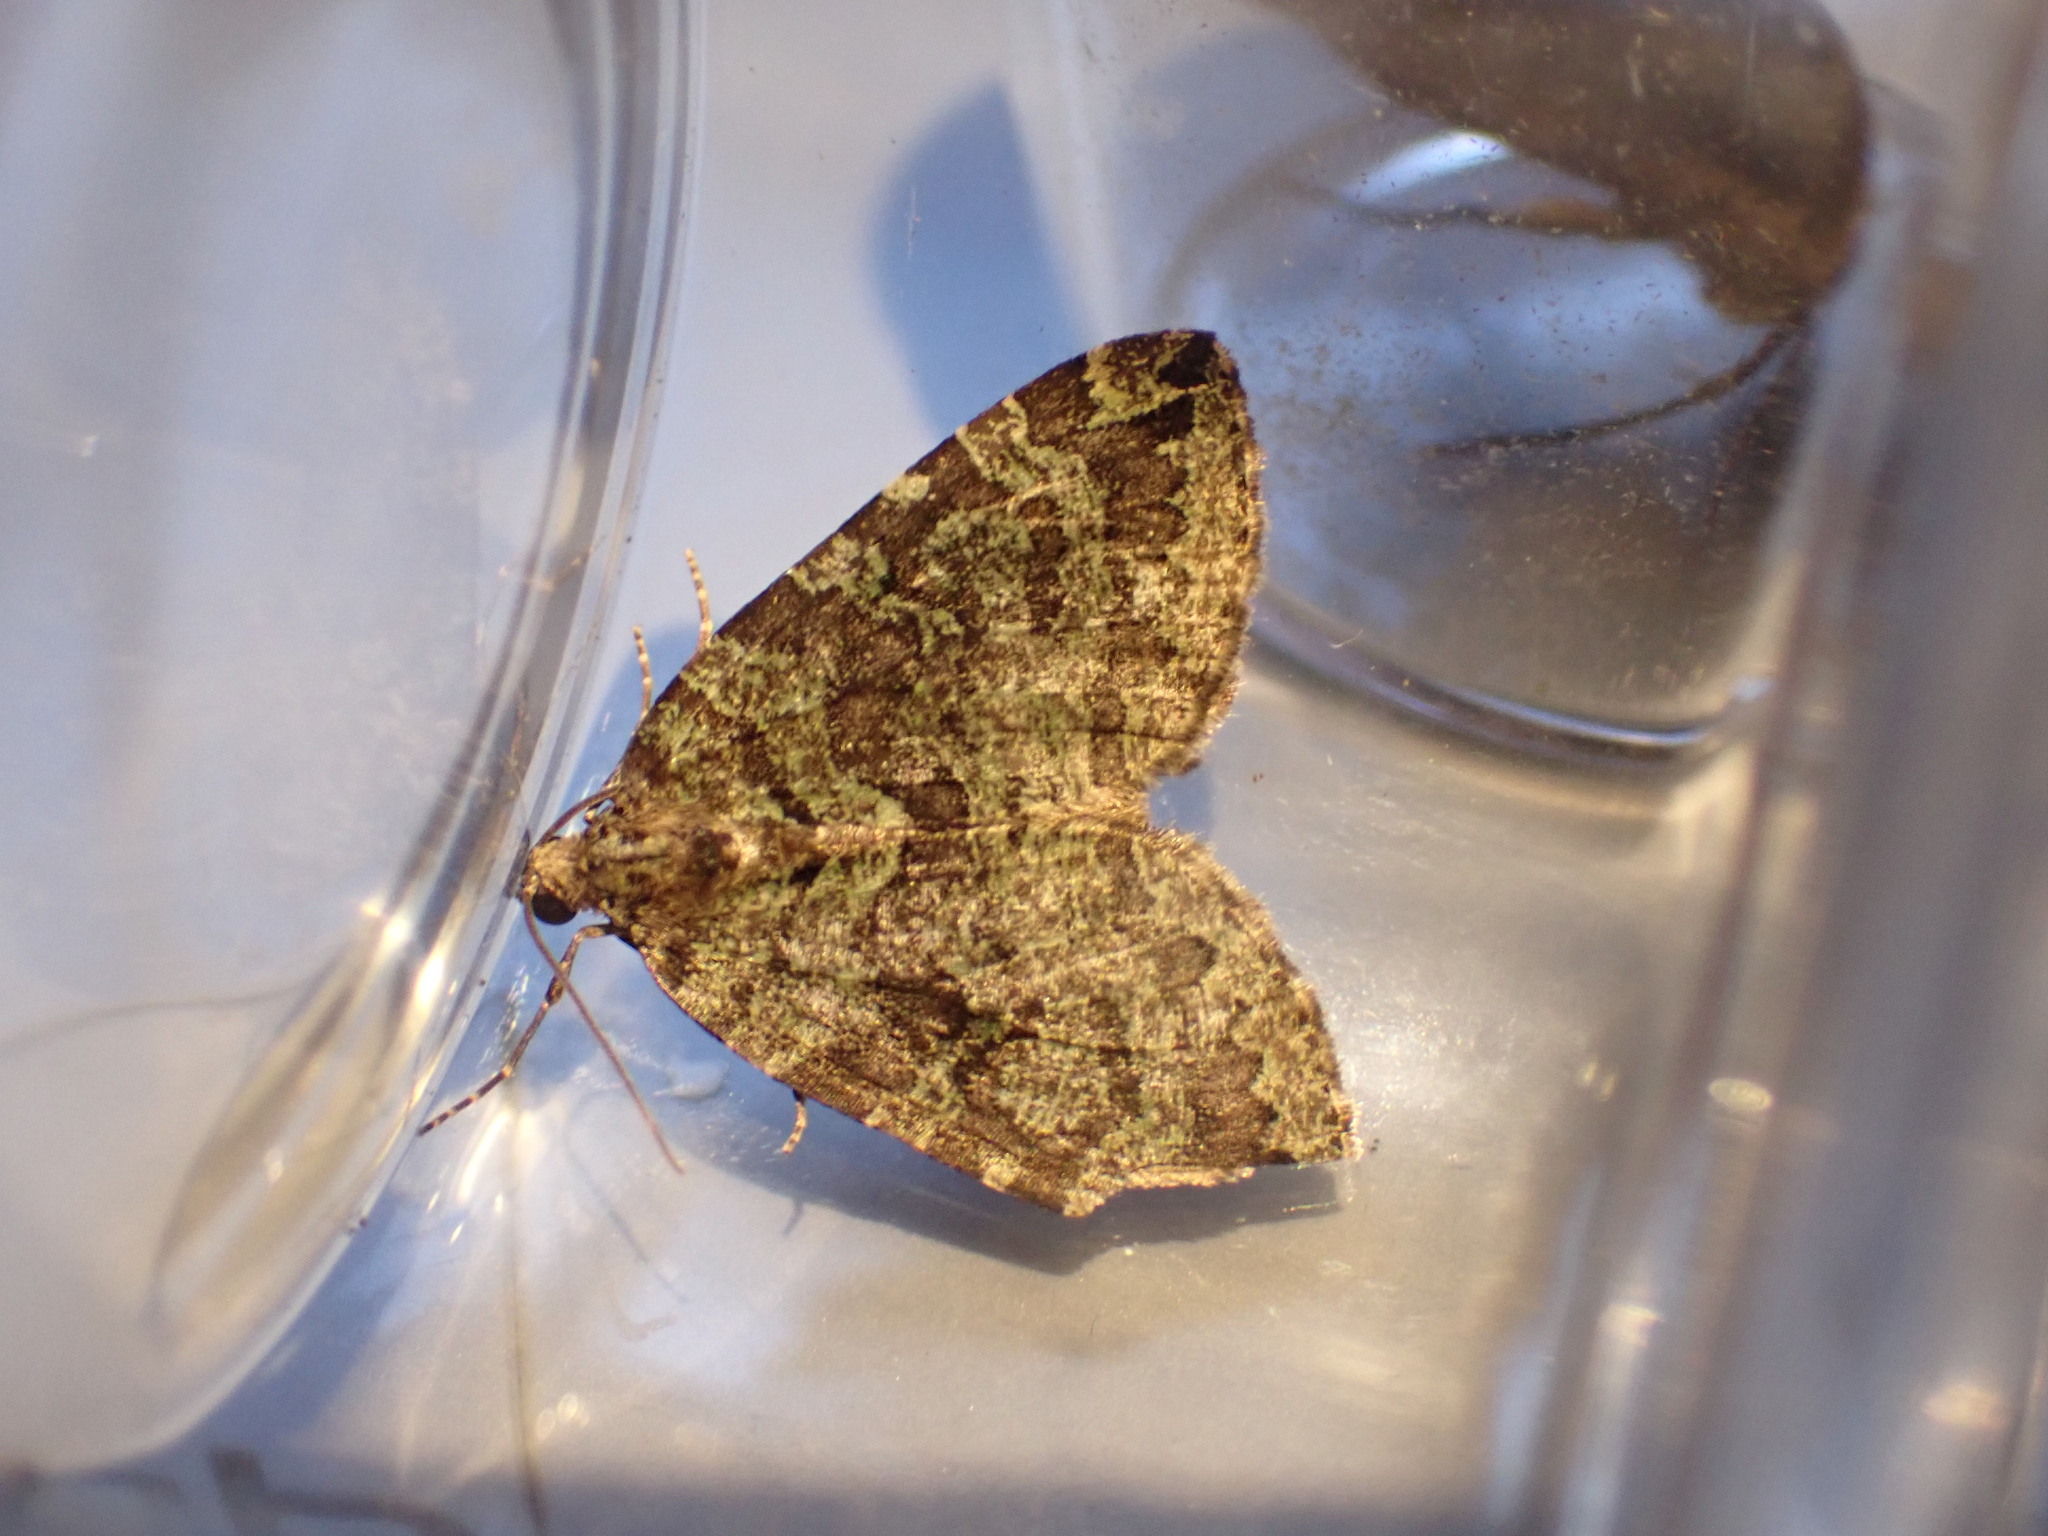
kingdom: Animalia
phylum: Arthropoda
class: Insecta
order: Lepidoptera
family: Geometridae
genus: Hydriomena
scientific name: Hydriomena furcata
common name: July highflyer
